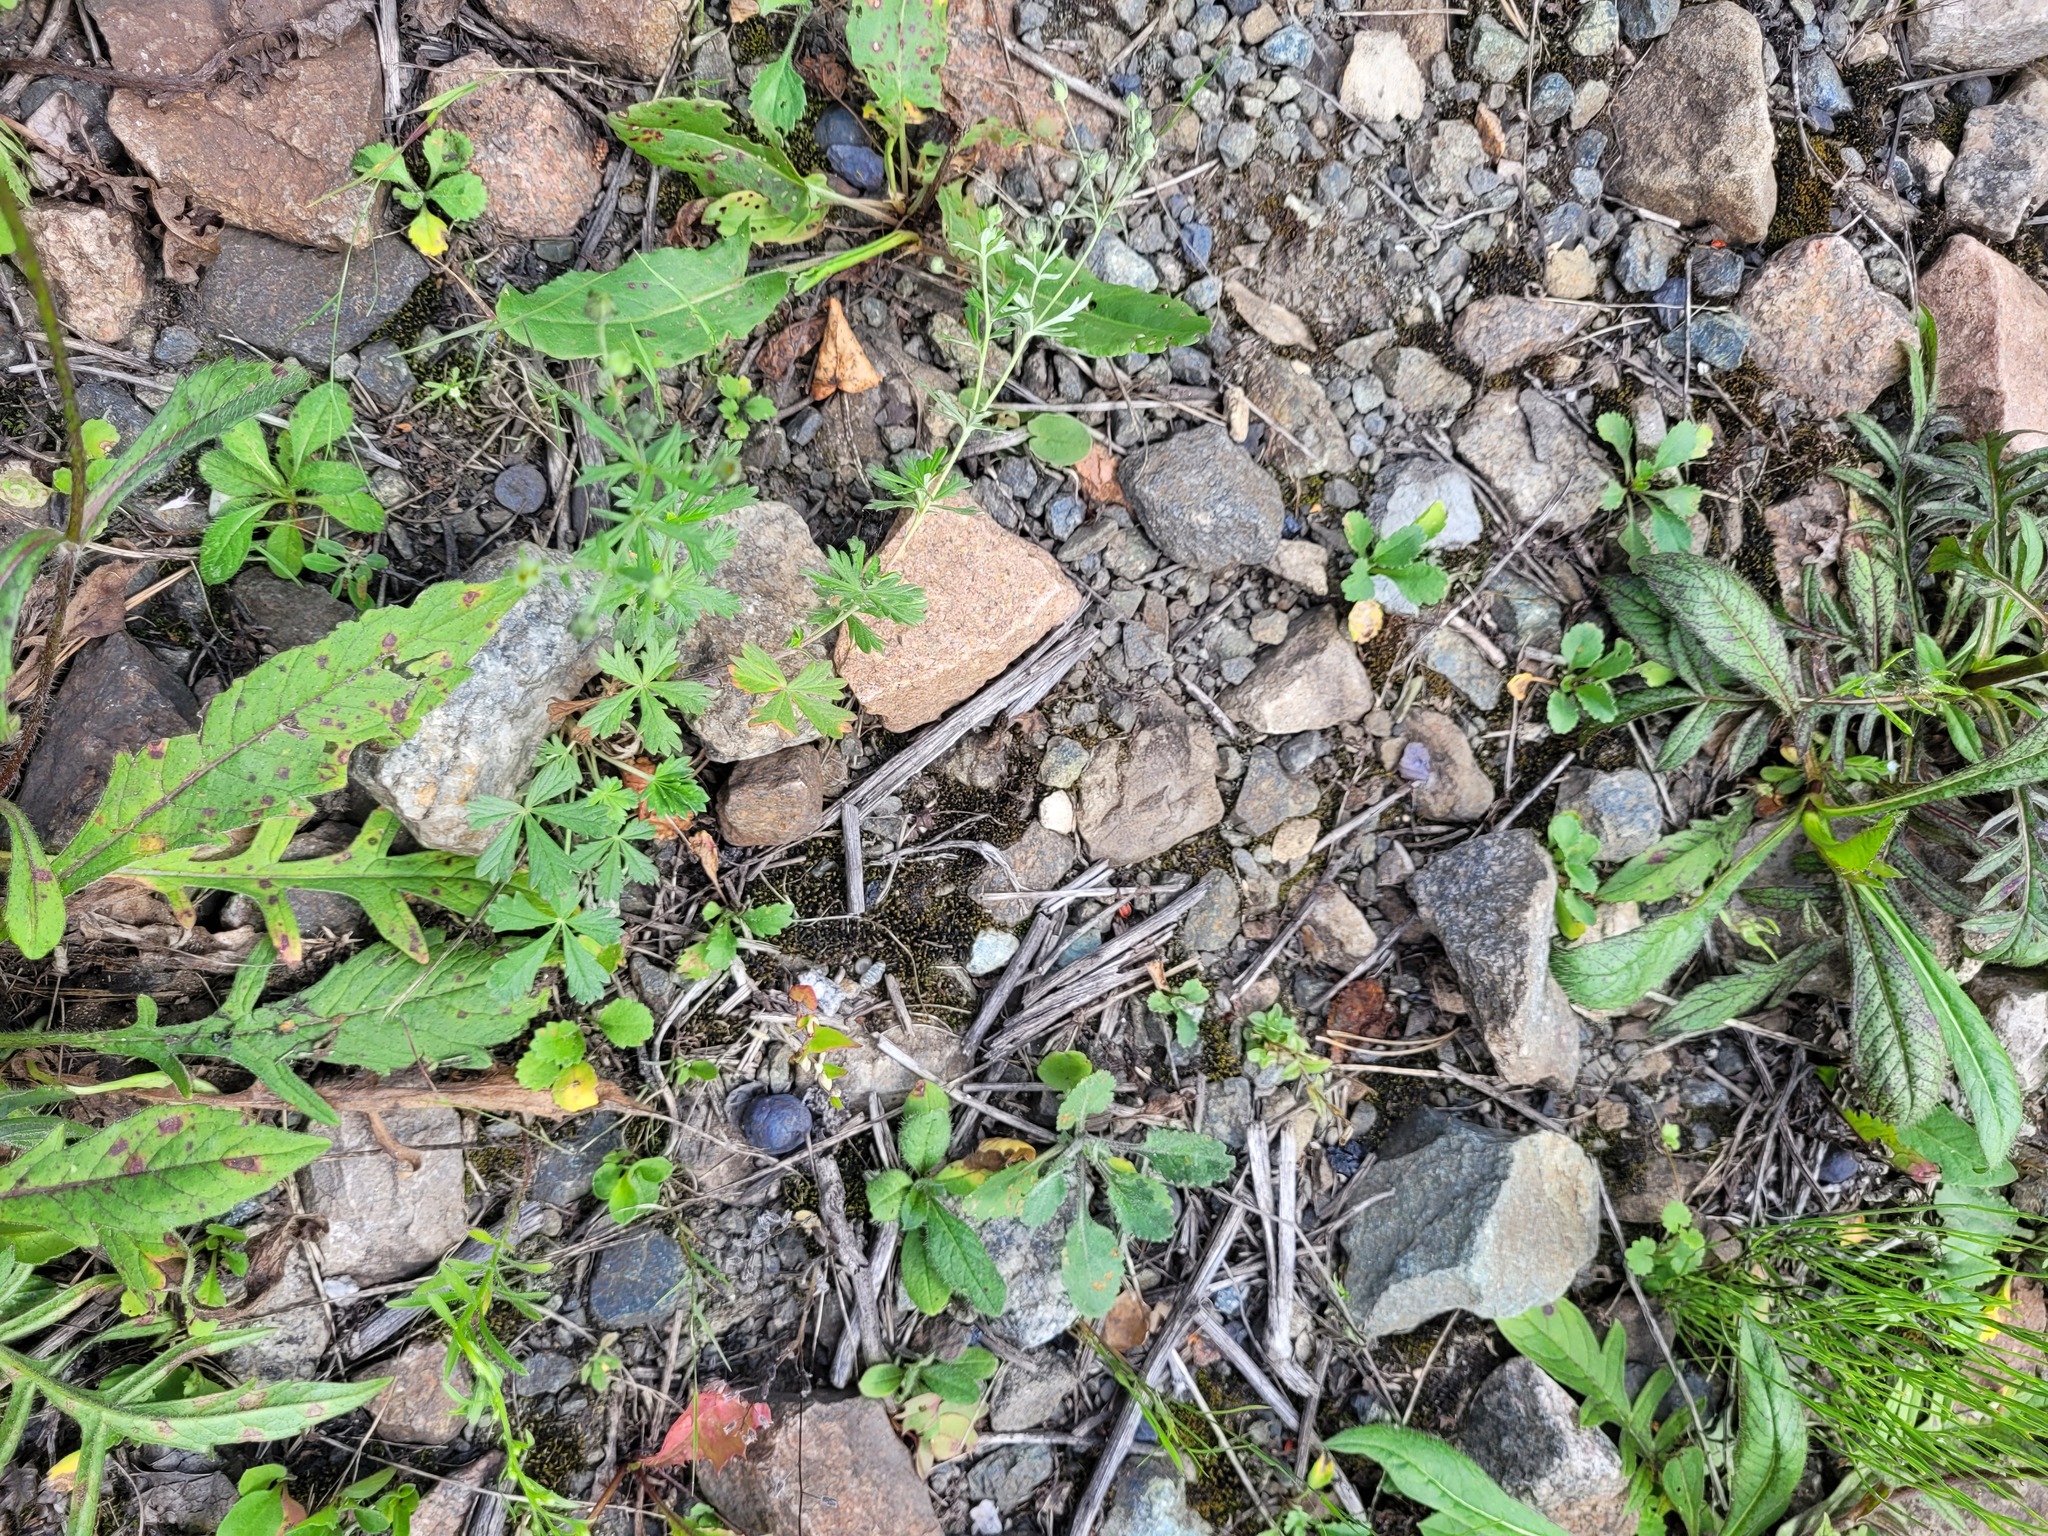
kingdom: Plantae
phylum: Tracheophyta
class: Magnoliopsida
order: Rosales
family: Rosaceae
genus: Potentilla
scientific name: Potentilla argentea
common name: Hoary cinquefoil
